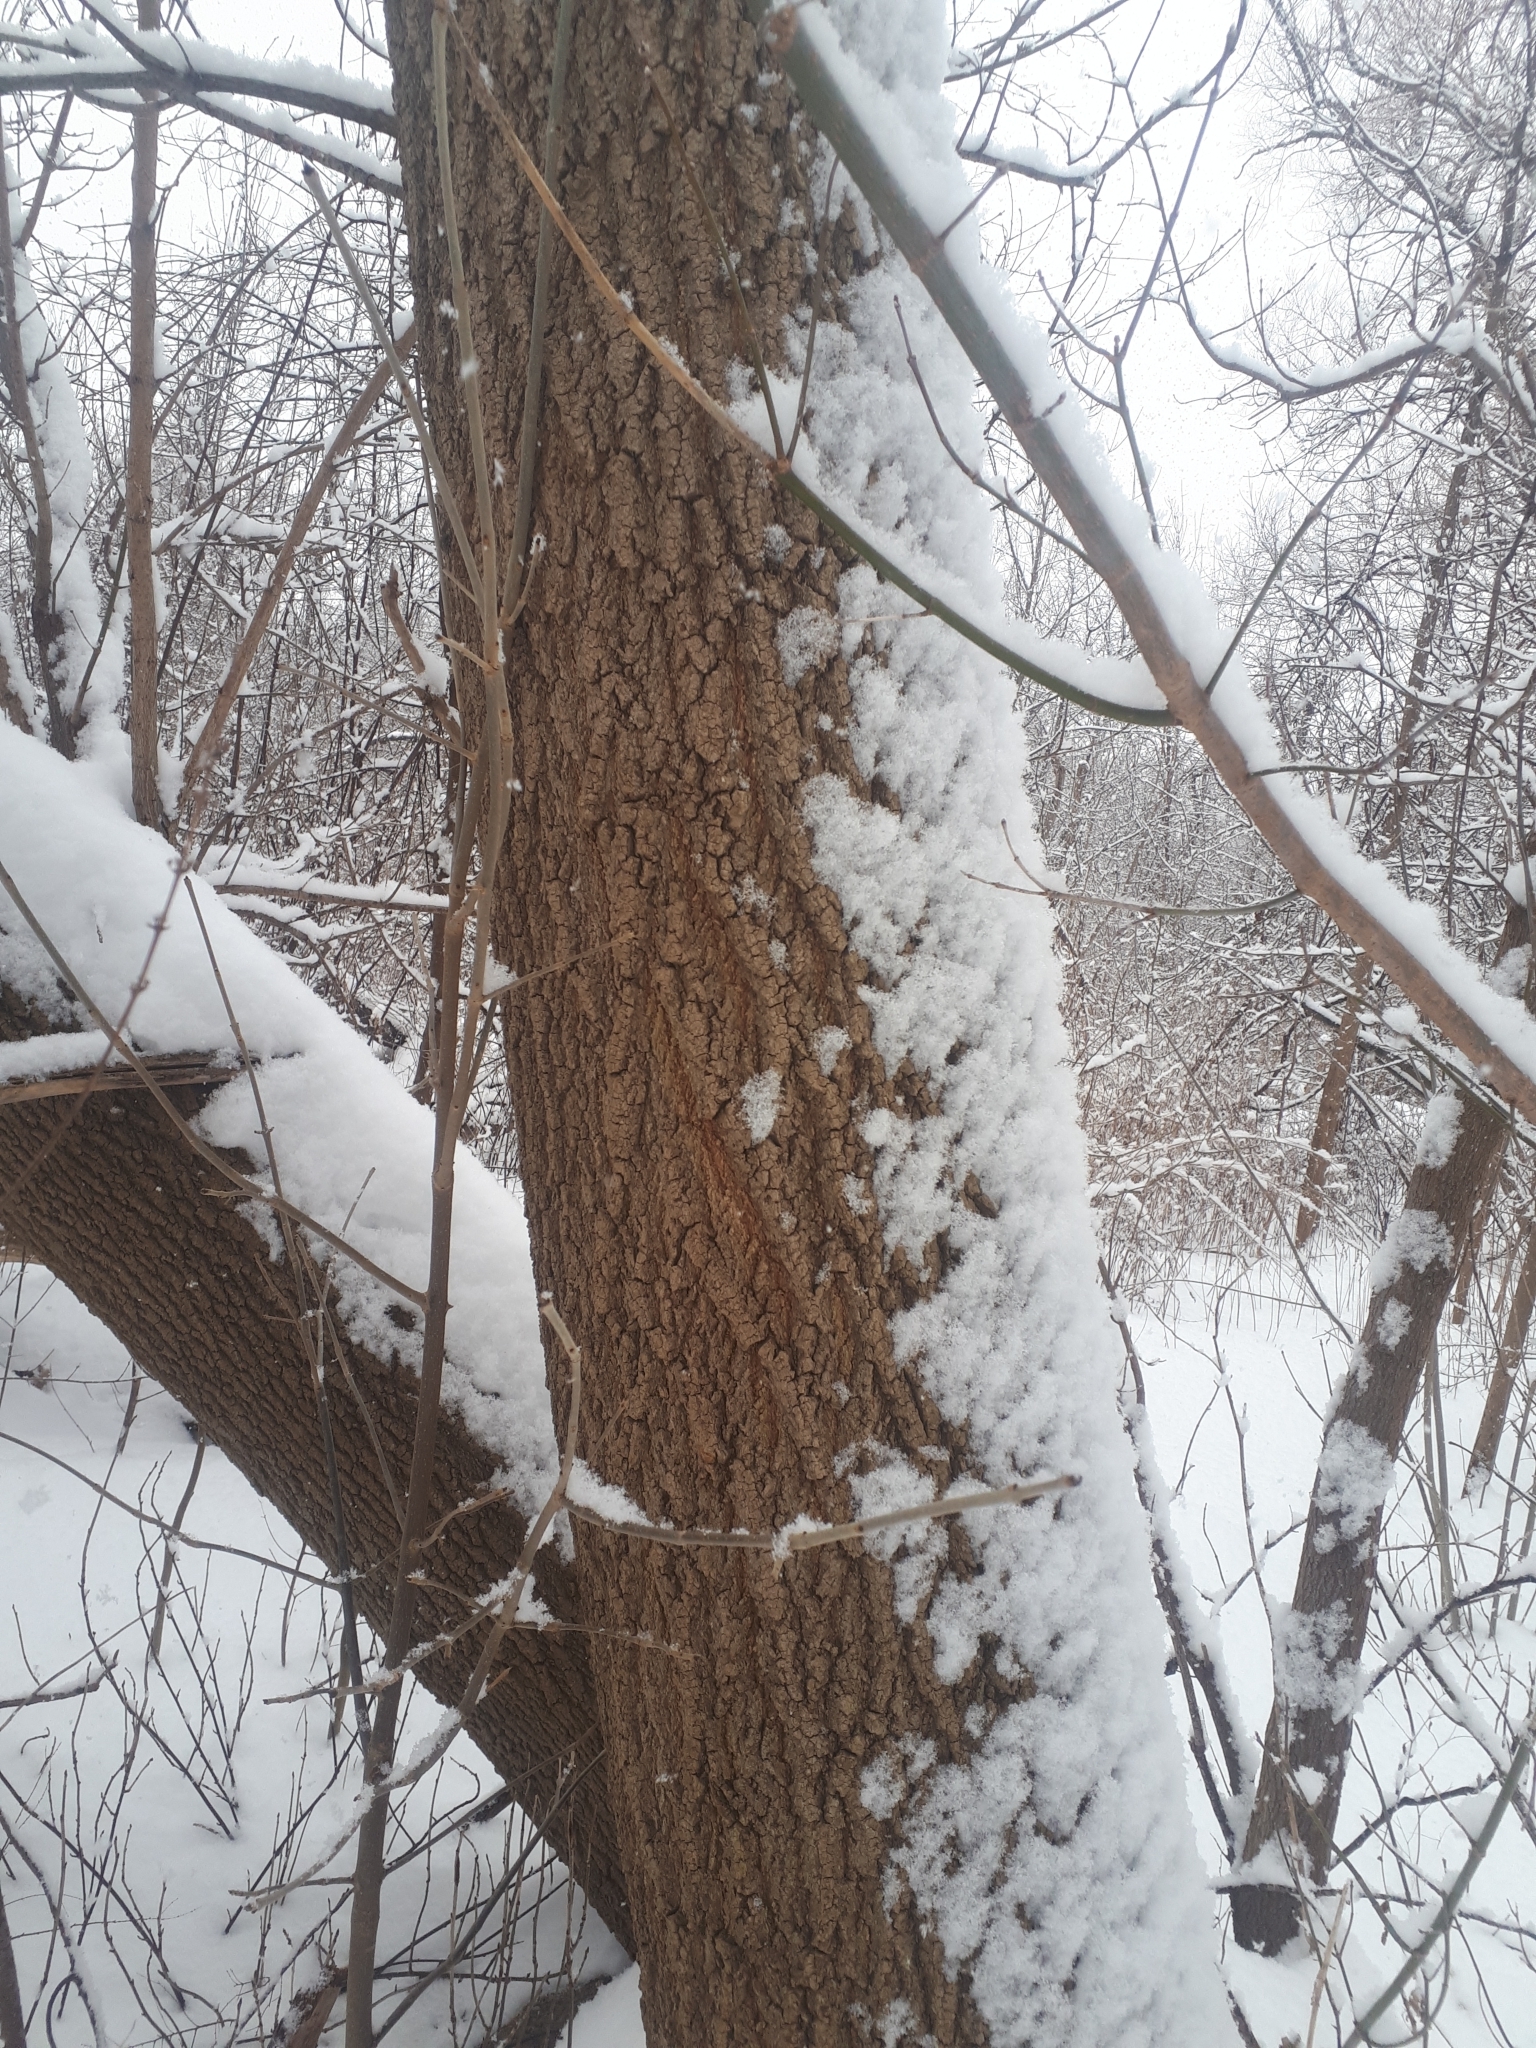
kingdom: Plantae
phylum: Tracheophyta
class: Magnoliopsida
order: Sapindales
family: Sapindaceae
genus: Acer
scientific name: Acer negundo
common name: Ashleaf maple
